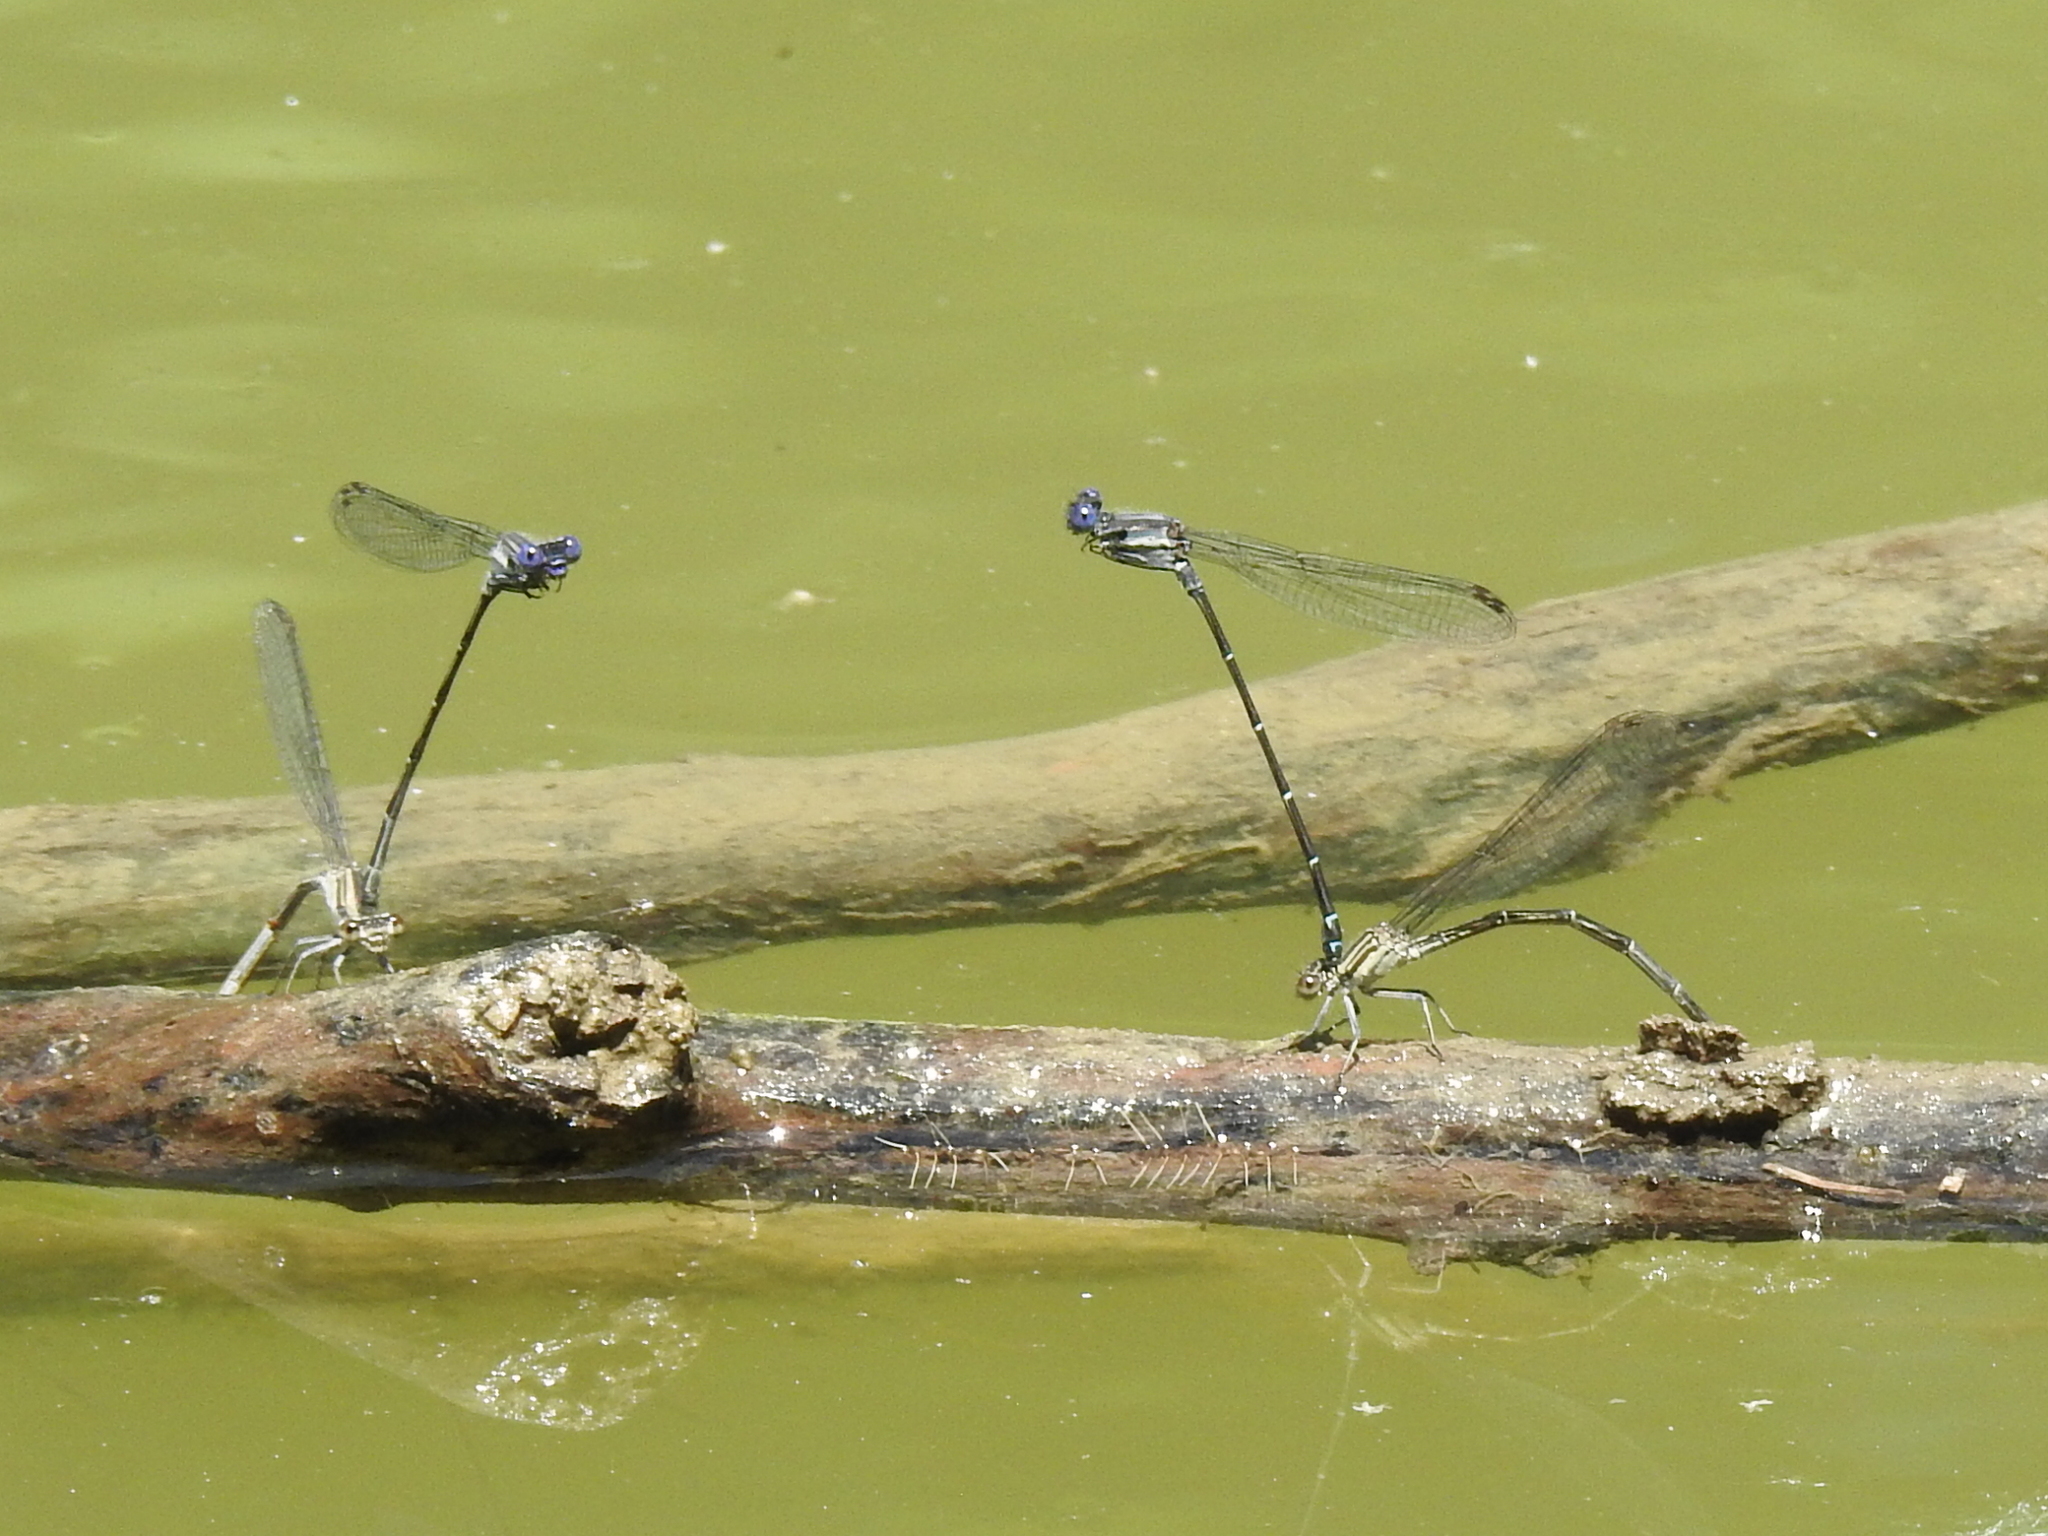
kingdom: Animalia
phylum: Arthropoda
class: Insecta
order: Odonata
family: Coenagrionidae
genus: Argia
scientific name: Argia translata
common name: Dusky dancer
